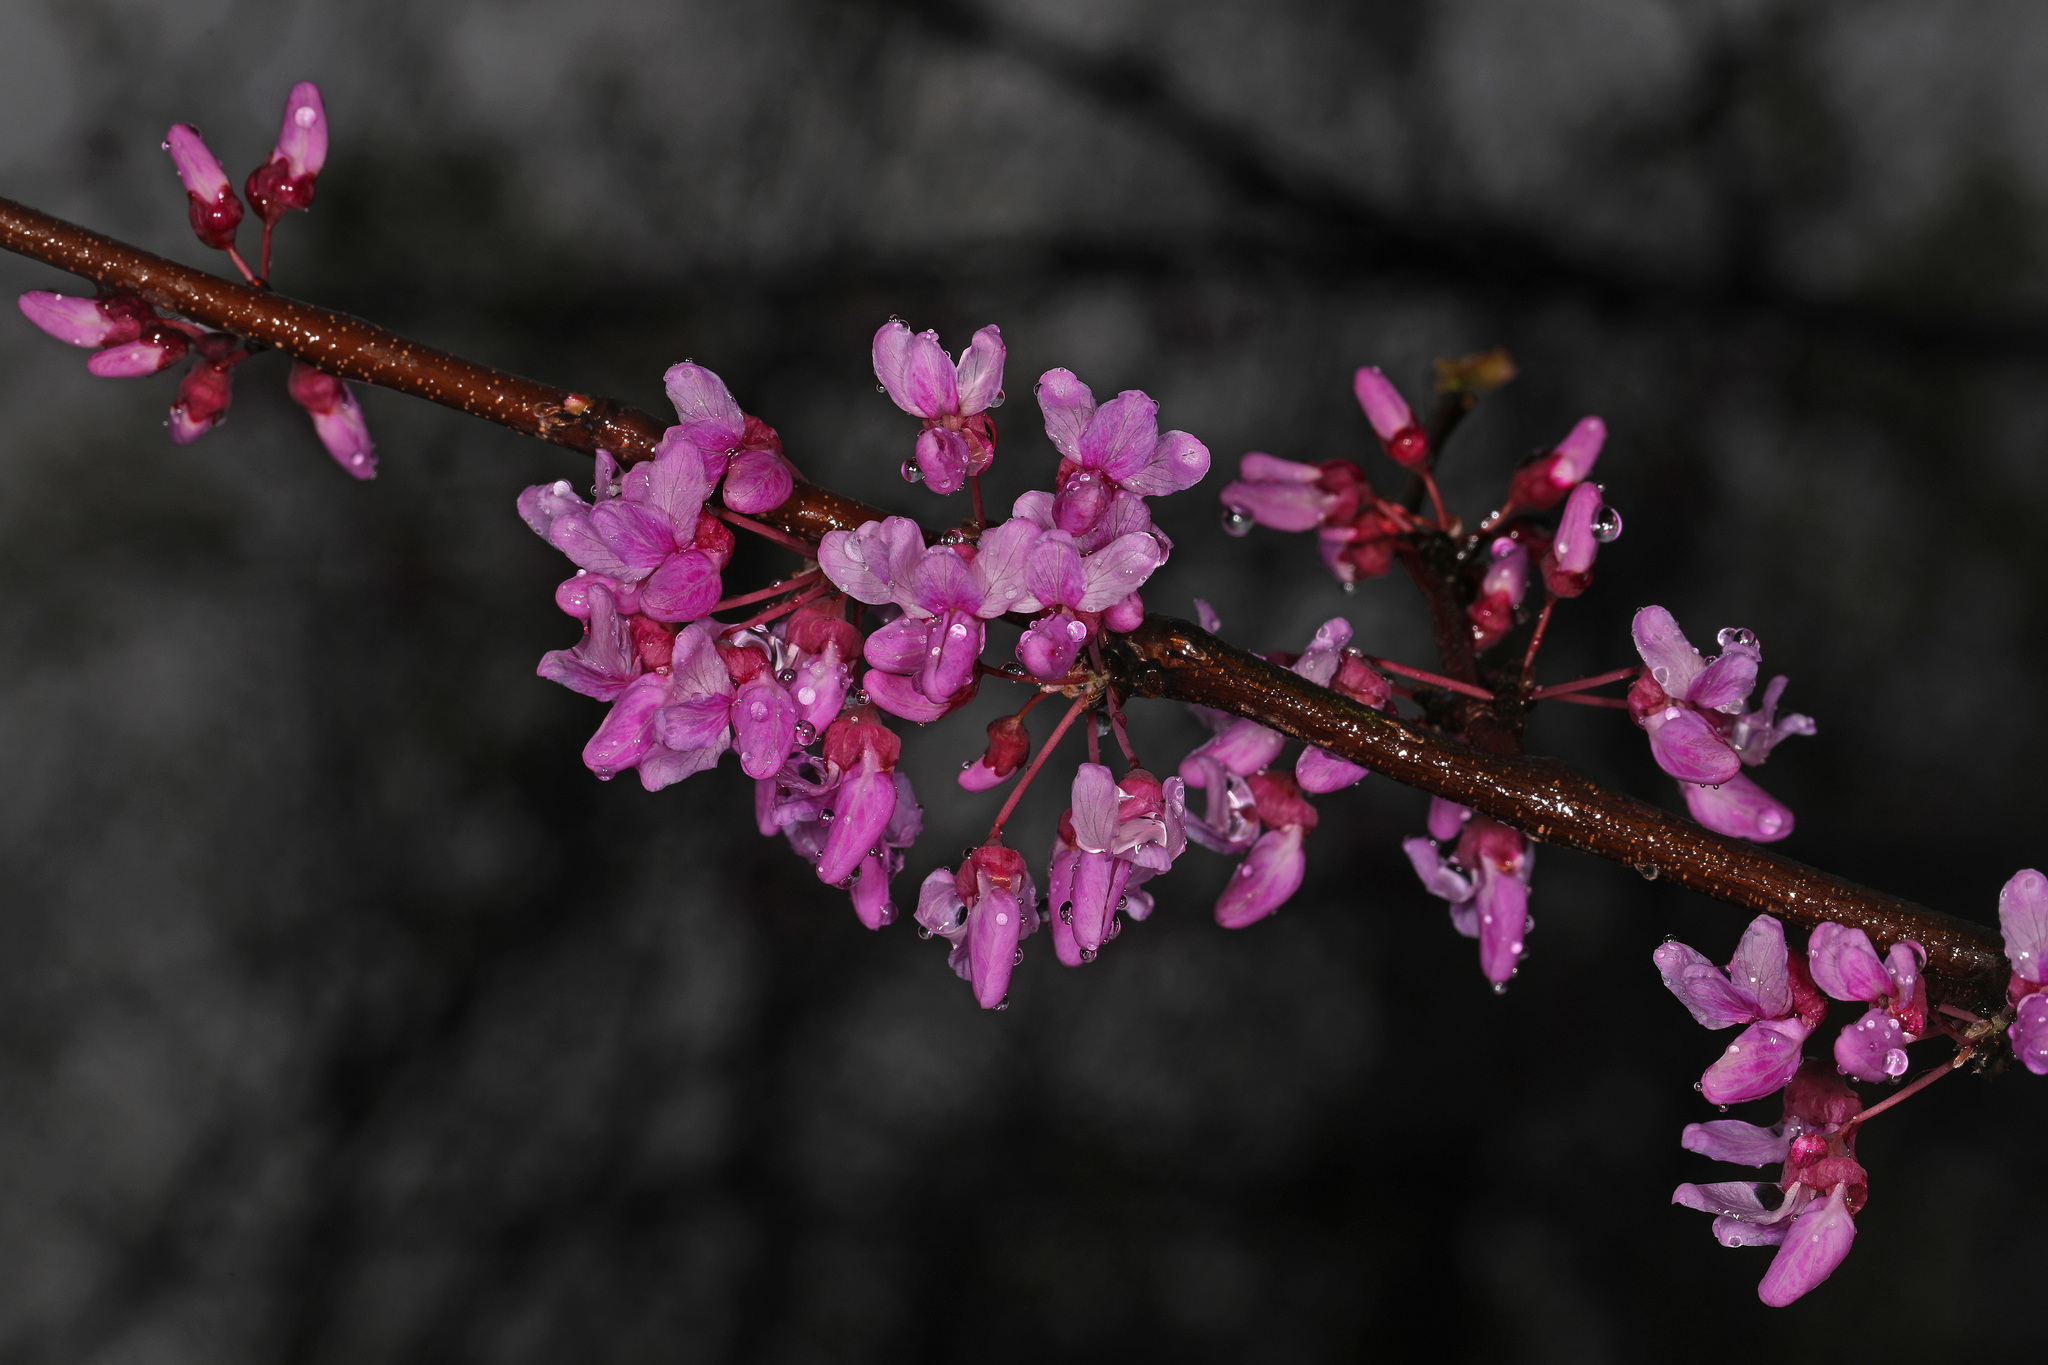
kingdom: Plantae
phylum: Tracheophyta
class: Magnoliopsida
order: Fabales
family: Fabaceae
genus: Cercis
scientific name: Cercis canadensis
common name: Eastern redbud
